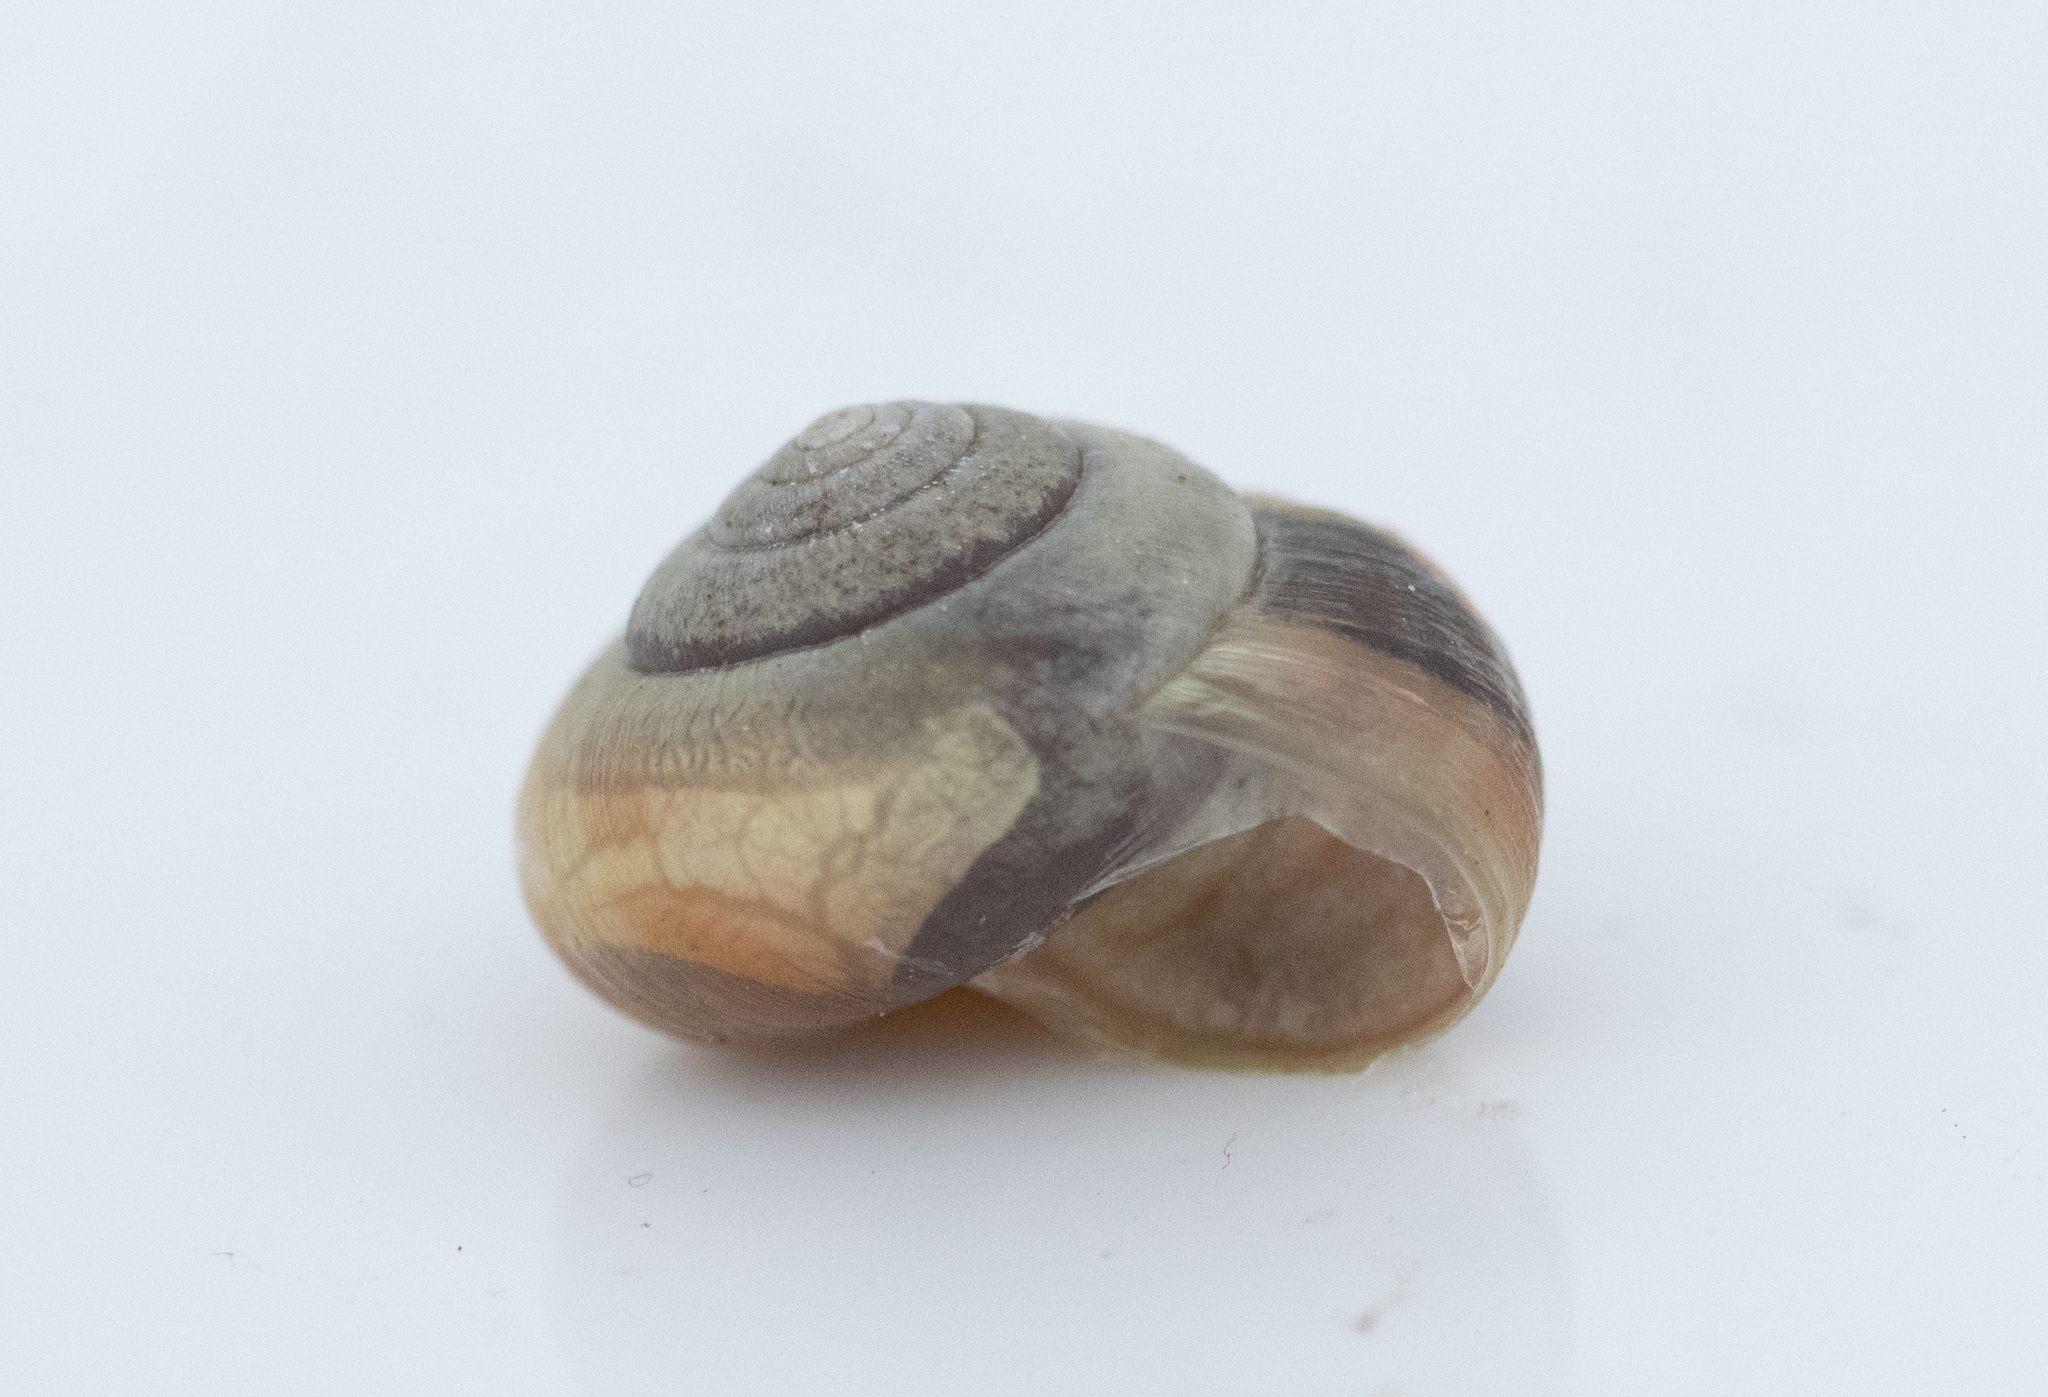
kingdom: Animalia
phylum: Mollusca
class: Gastropoda
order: Stylommatophora
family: Hygromiidae
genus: Monacha
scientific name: Monacha cantiana
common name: Kentish snail
